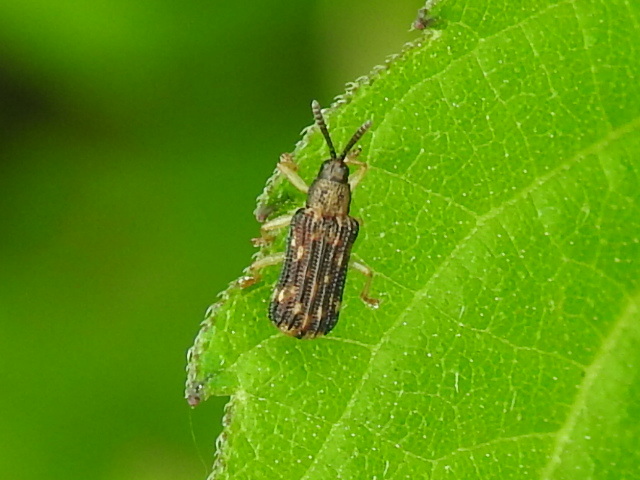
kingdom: Animalia
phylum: Arthropoda
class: Insecta
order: Coleoptera
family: Chrysomelidae
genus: Sumitrosis
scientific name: Sumitrosis inaequalis
